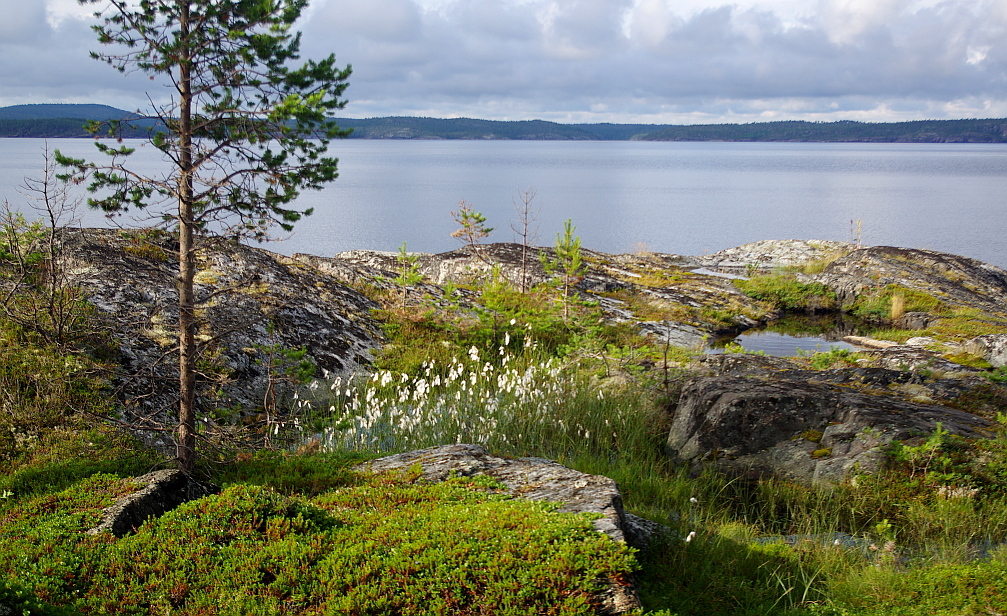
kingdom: Plantae
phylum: Tracheophyta
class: Liliopsida
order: Poales
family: Cyperaceae
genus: Eriophorum
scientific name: Eriophorum angustifolium
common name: Common cottongrass
